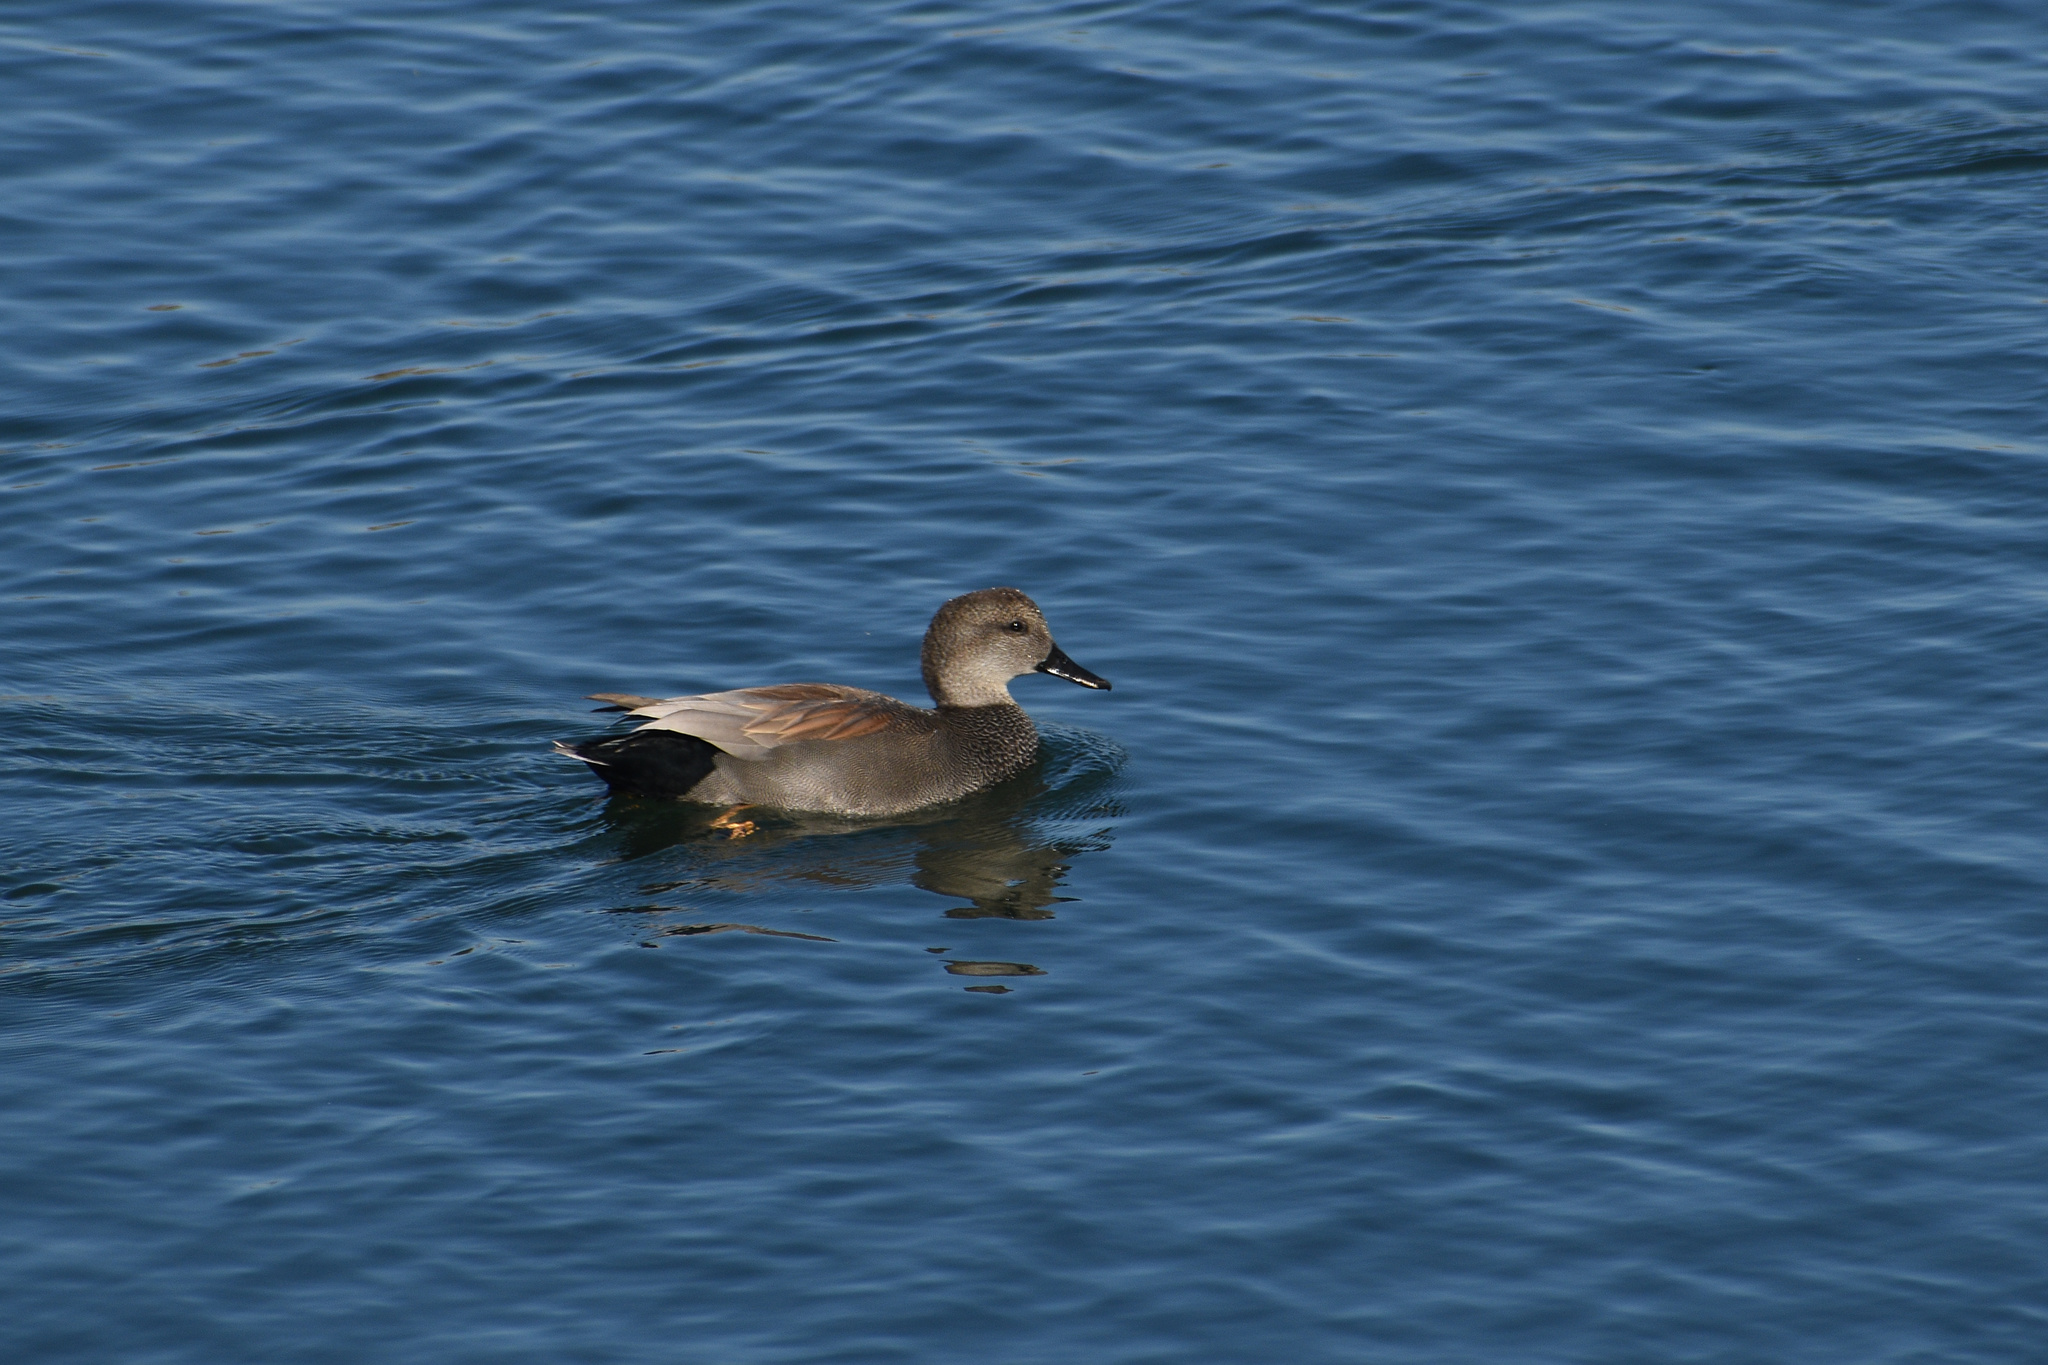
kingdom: Animalia
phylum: Chordata
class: Aves
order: Anseriformes
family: Anatidae
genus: Mareca
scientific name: Mareca strepera
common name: Gadwall
